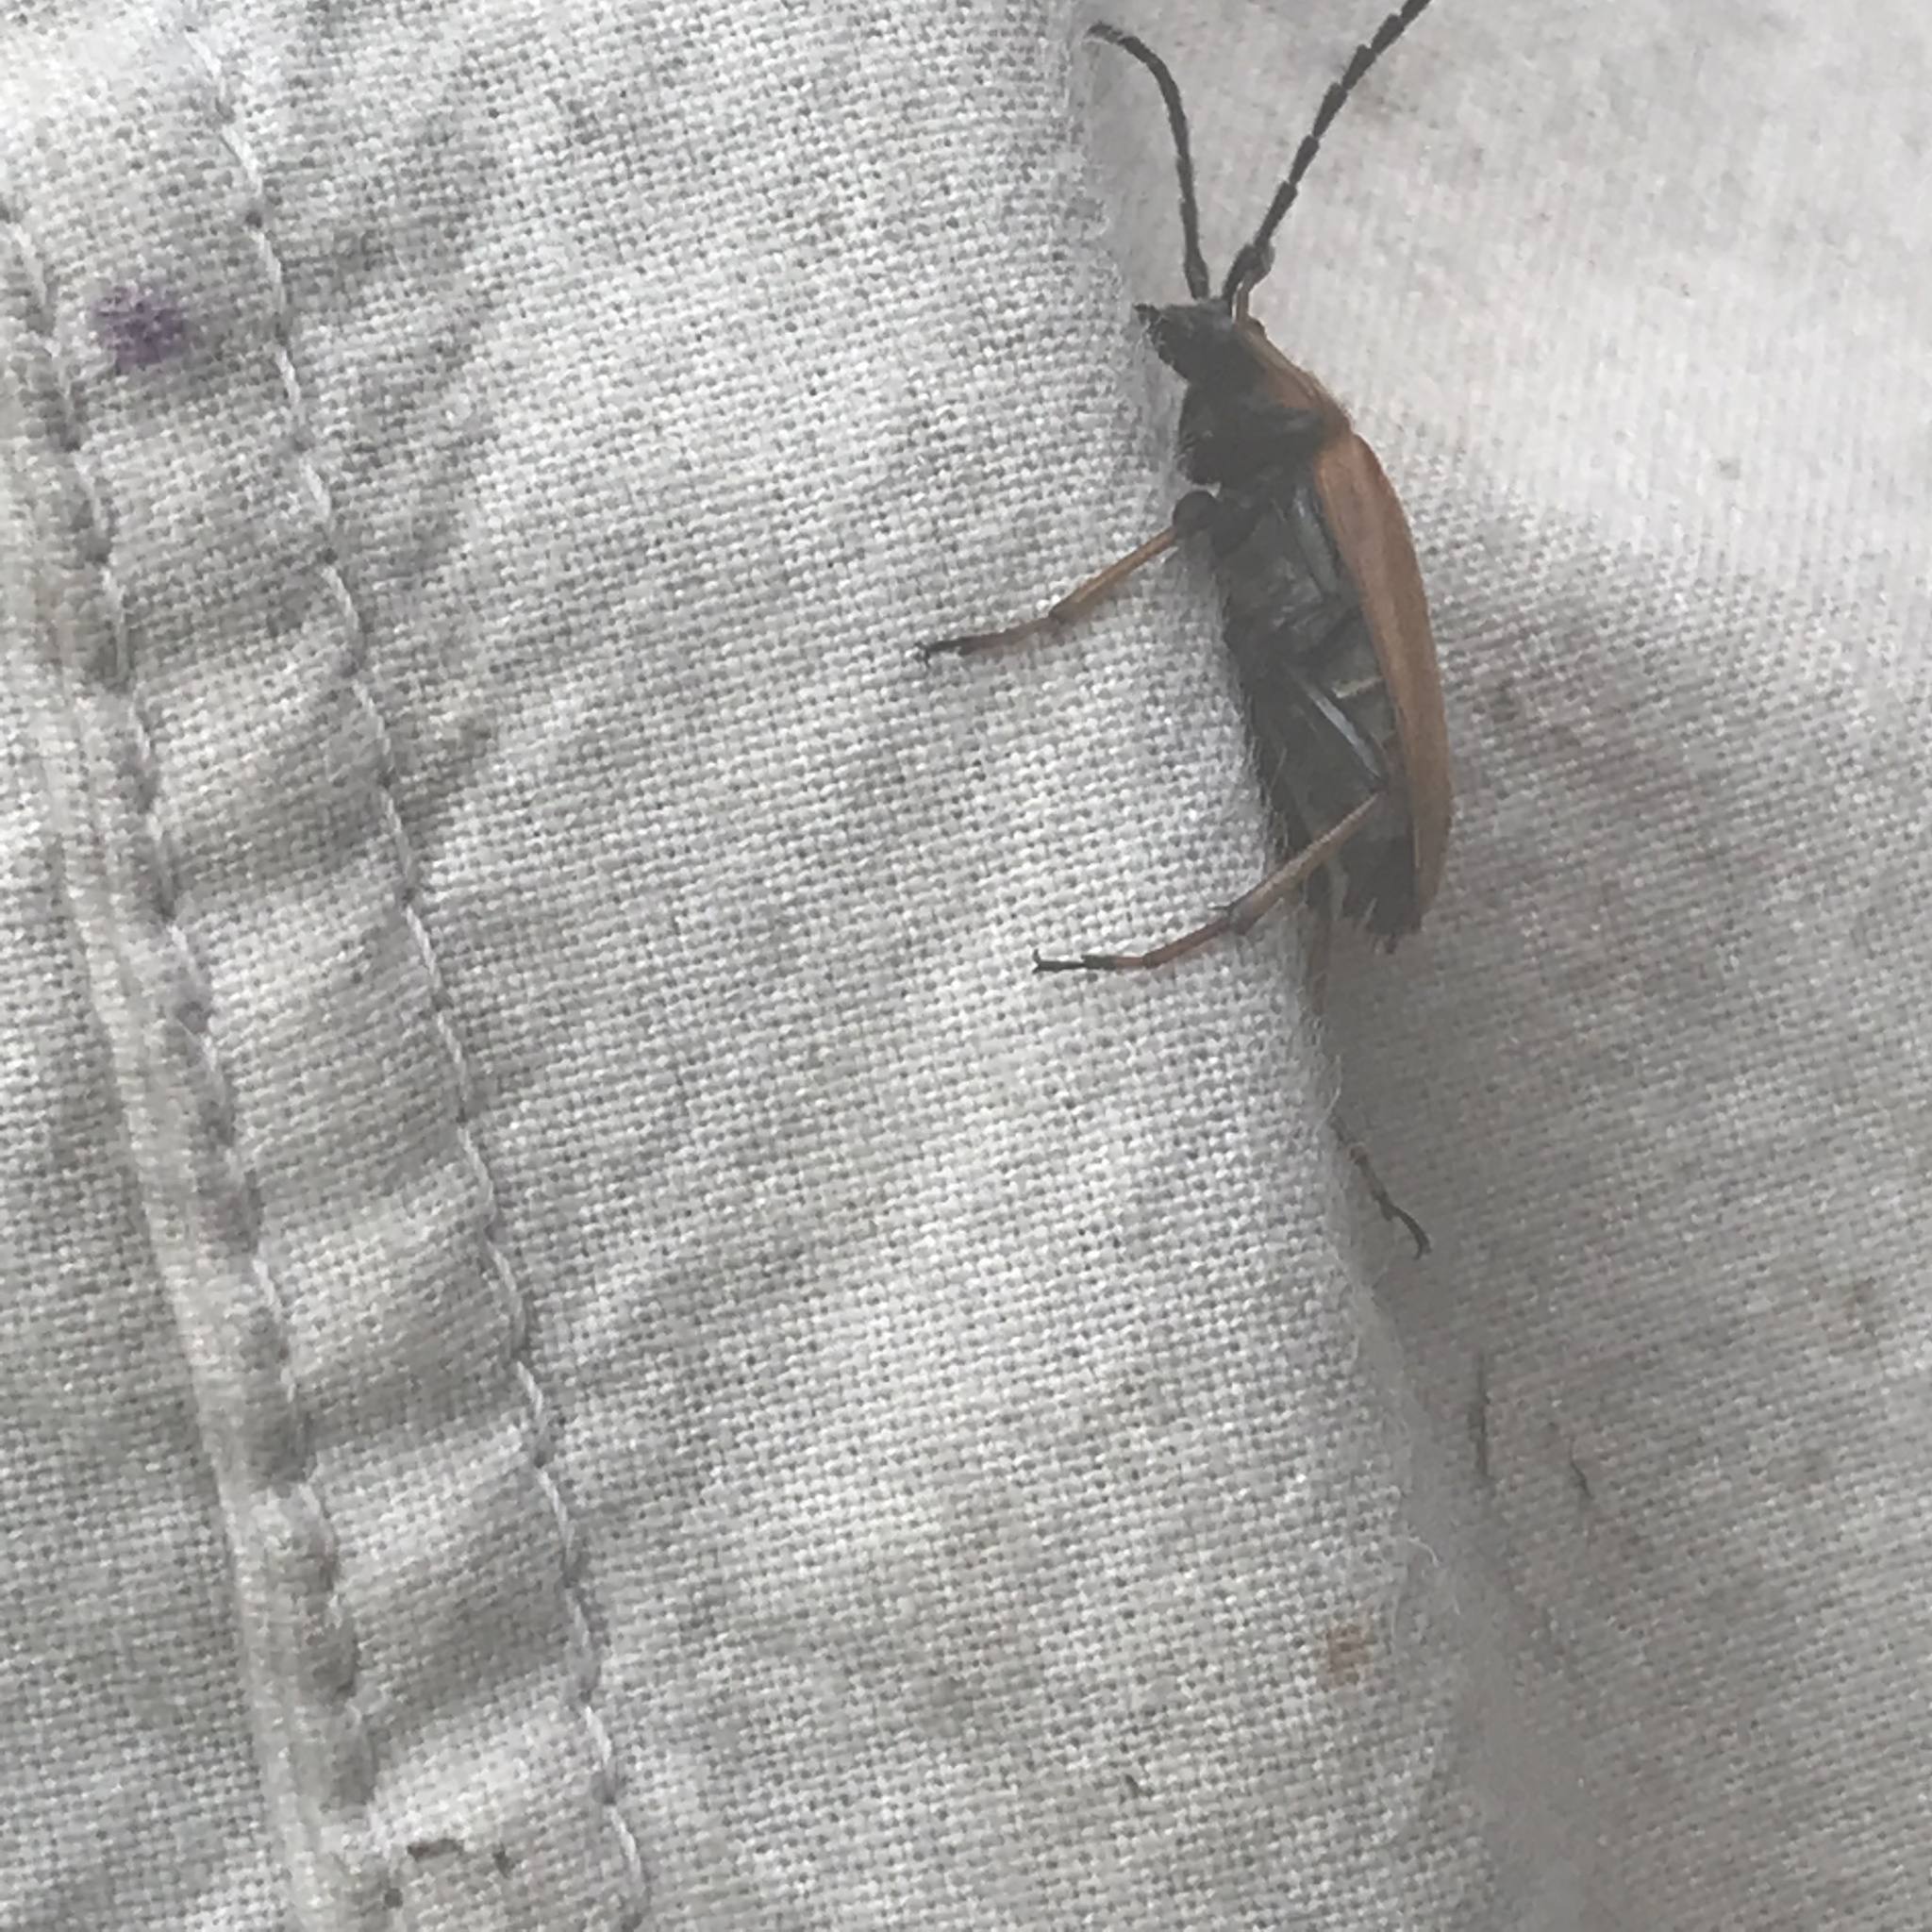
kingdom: Animalia
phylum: Arthropoda
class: Insecta
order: Coleoptera
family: Cerambycidae
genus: Stictoleptura
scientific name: Stictoleptura rubra
